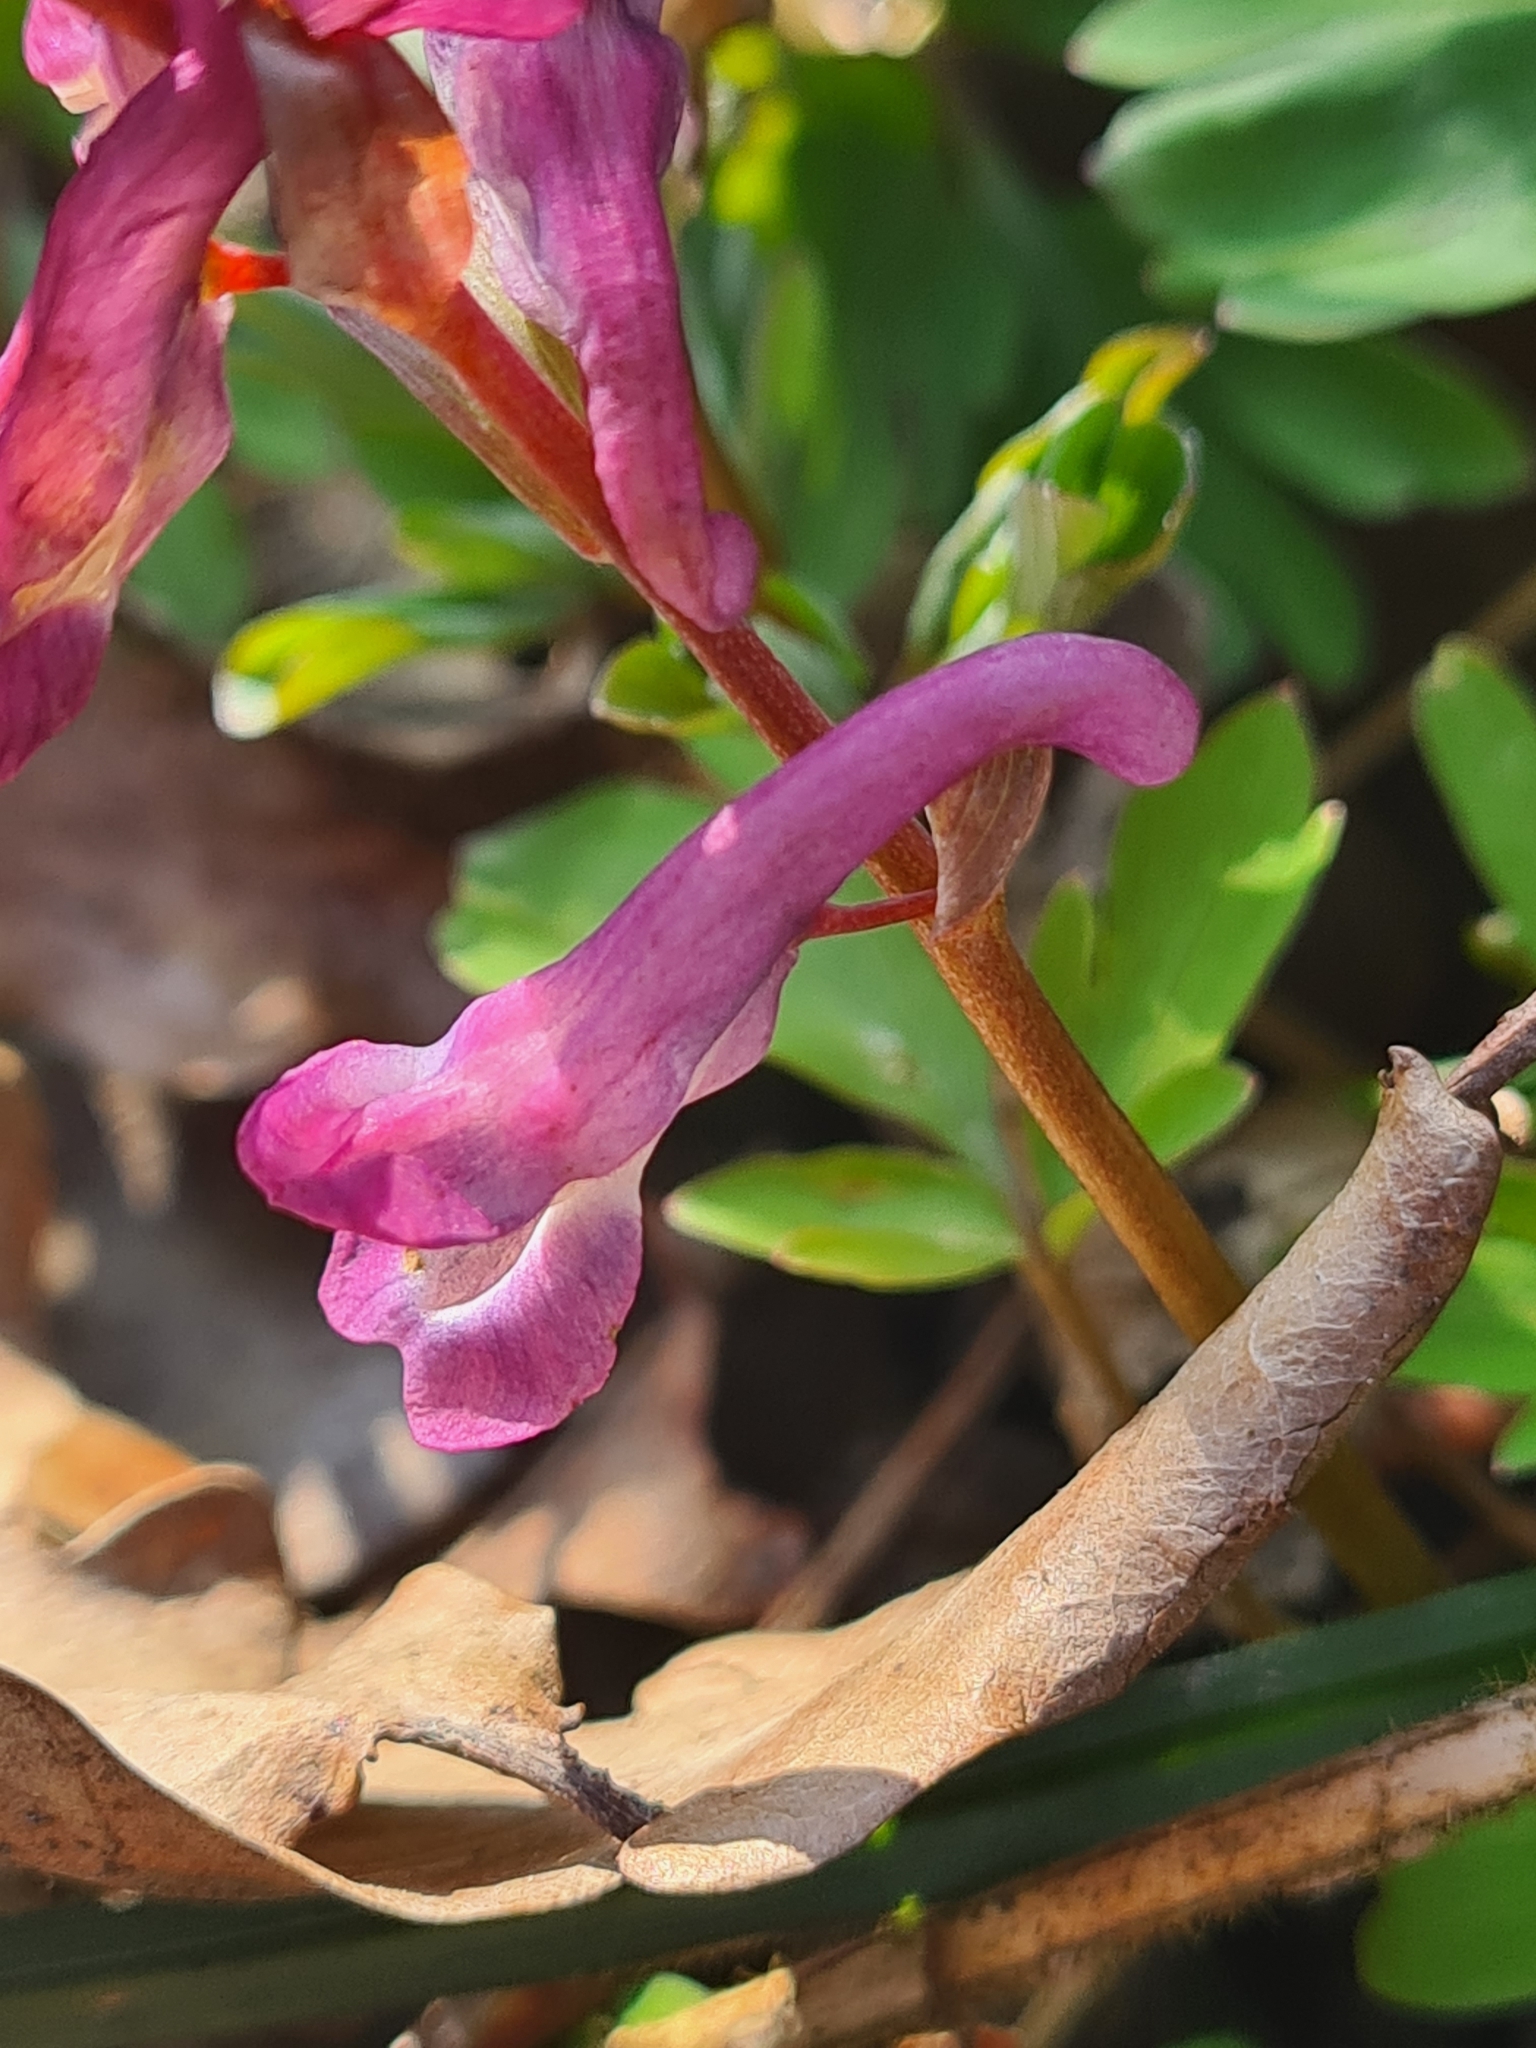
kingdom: Plantae
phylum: Tracheophyta
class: Magnoliopsida
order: Ranunculales
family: Papaveraceae
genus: Corydalis
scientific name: Corydalis cava
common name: Hollowroot
